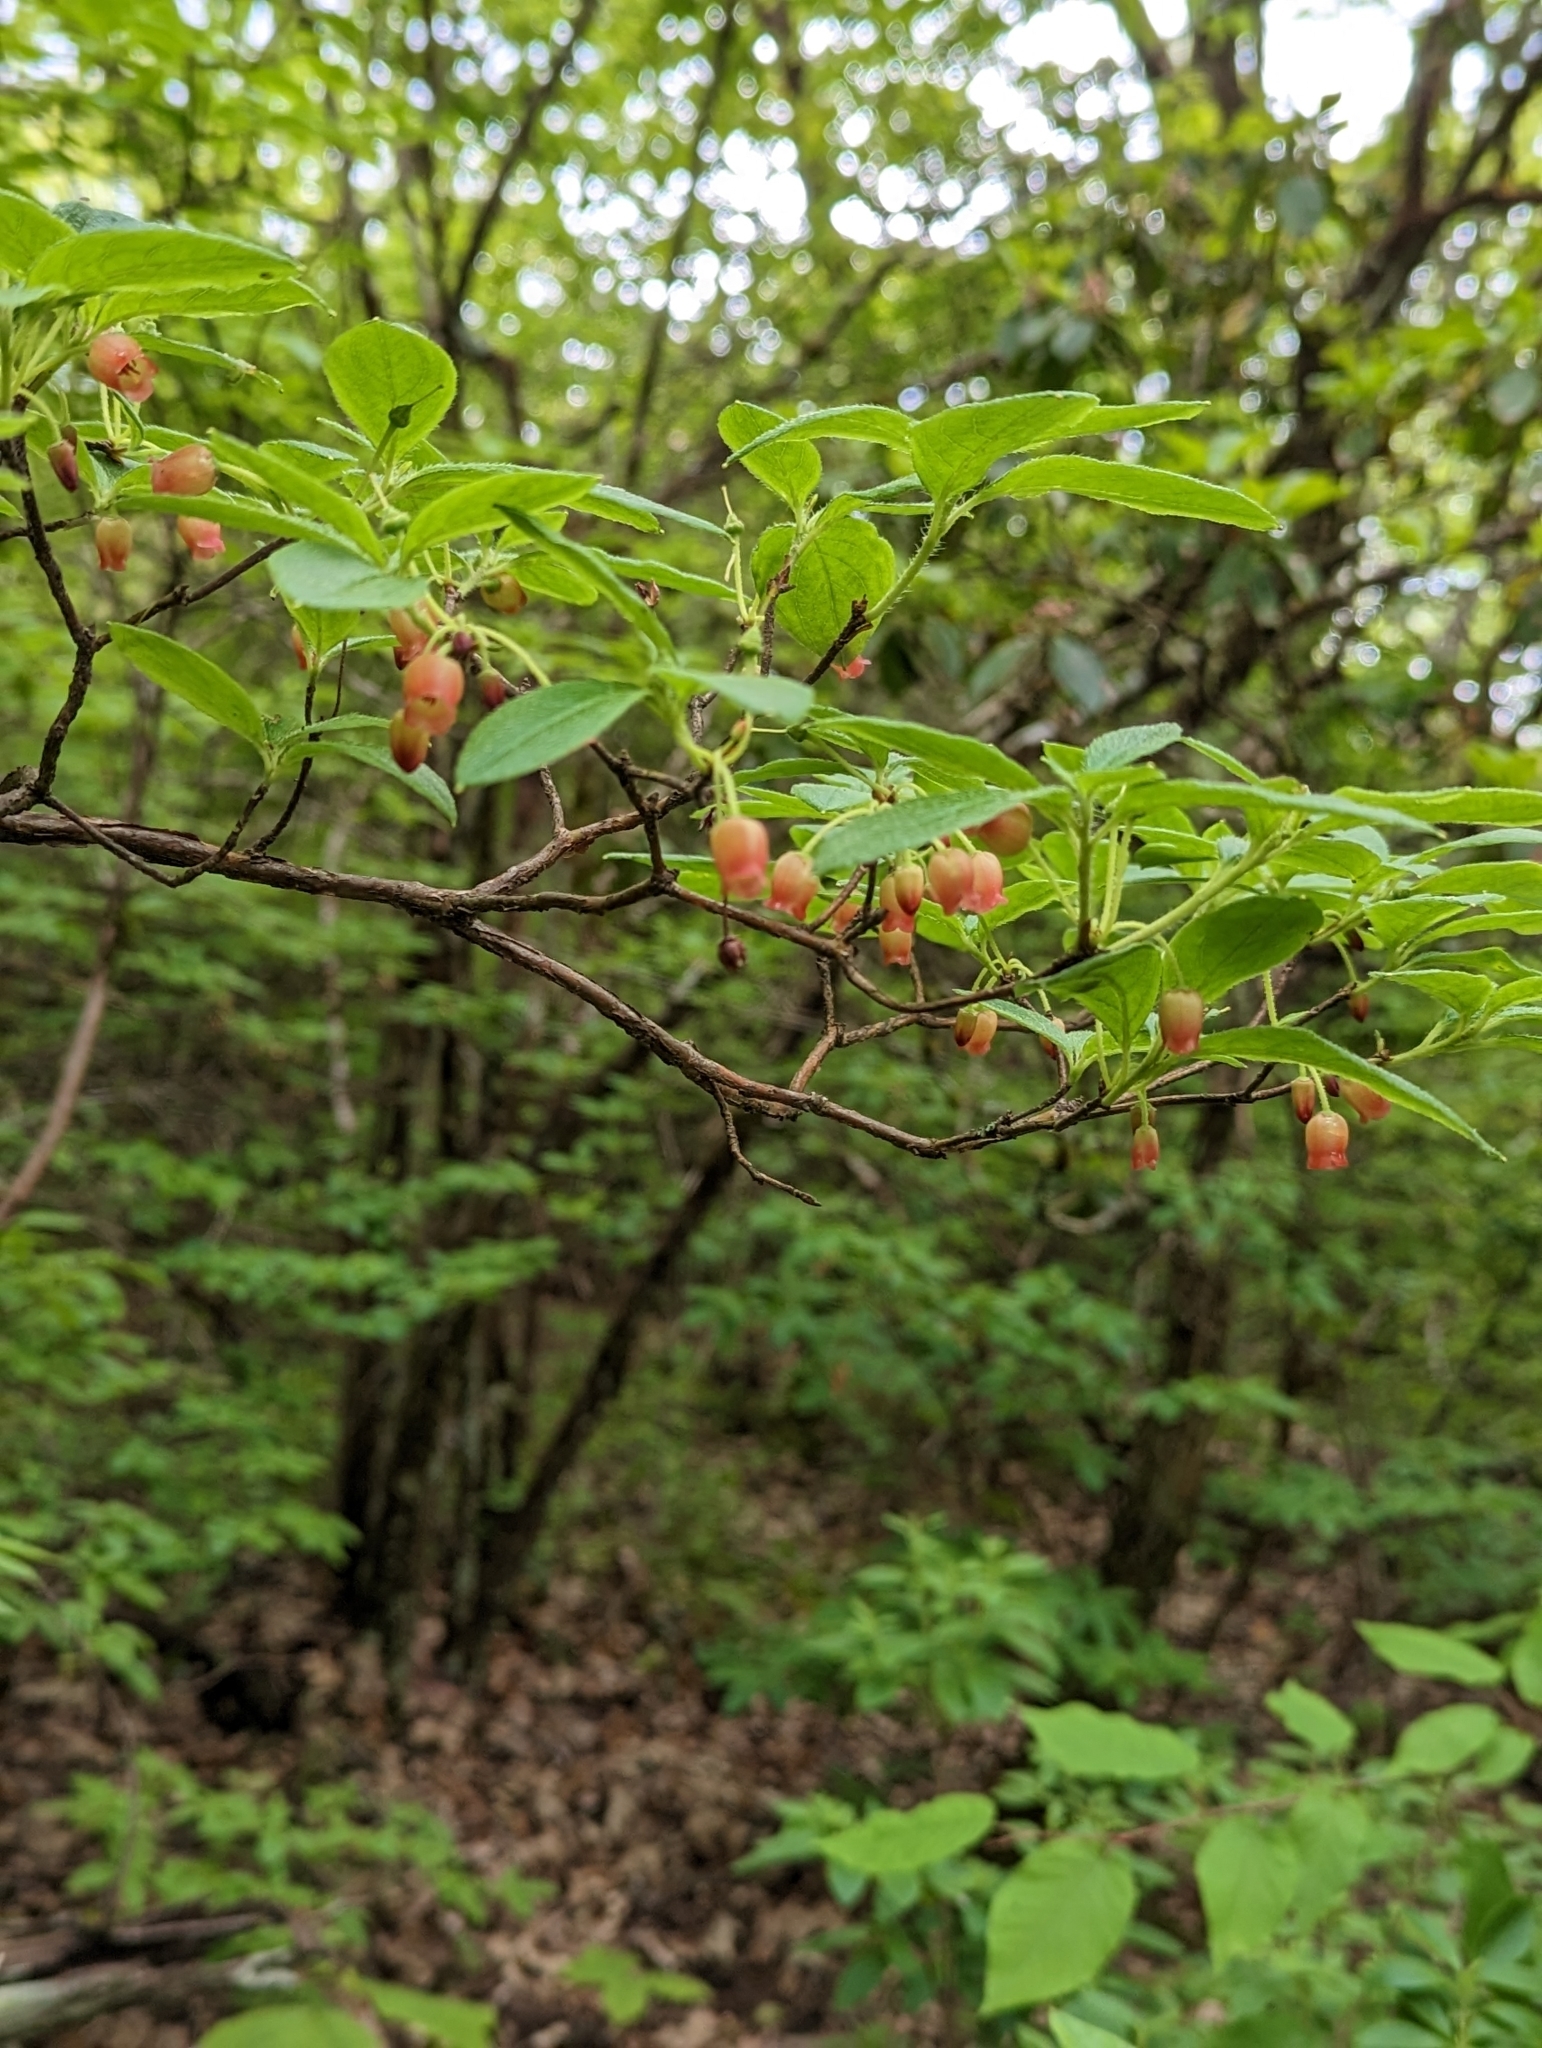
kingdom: Plantae
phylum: Tracheophyta
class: Magnoliopsida
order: Ericales
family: Ericaceae
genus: Rhododendron
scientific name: Rhododendron pilosum
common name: Hairy minniebush
